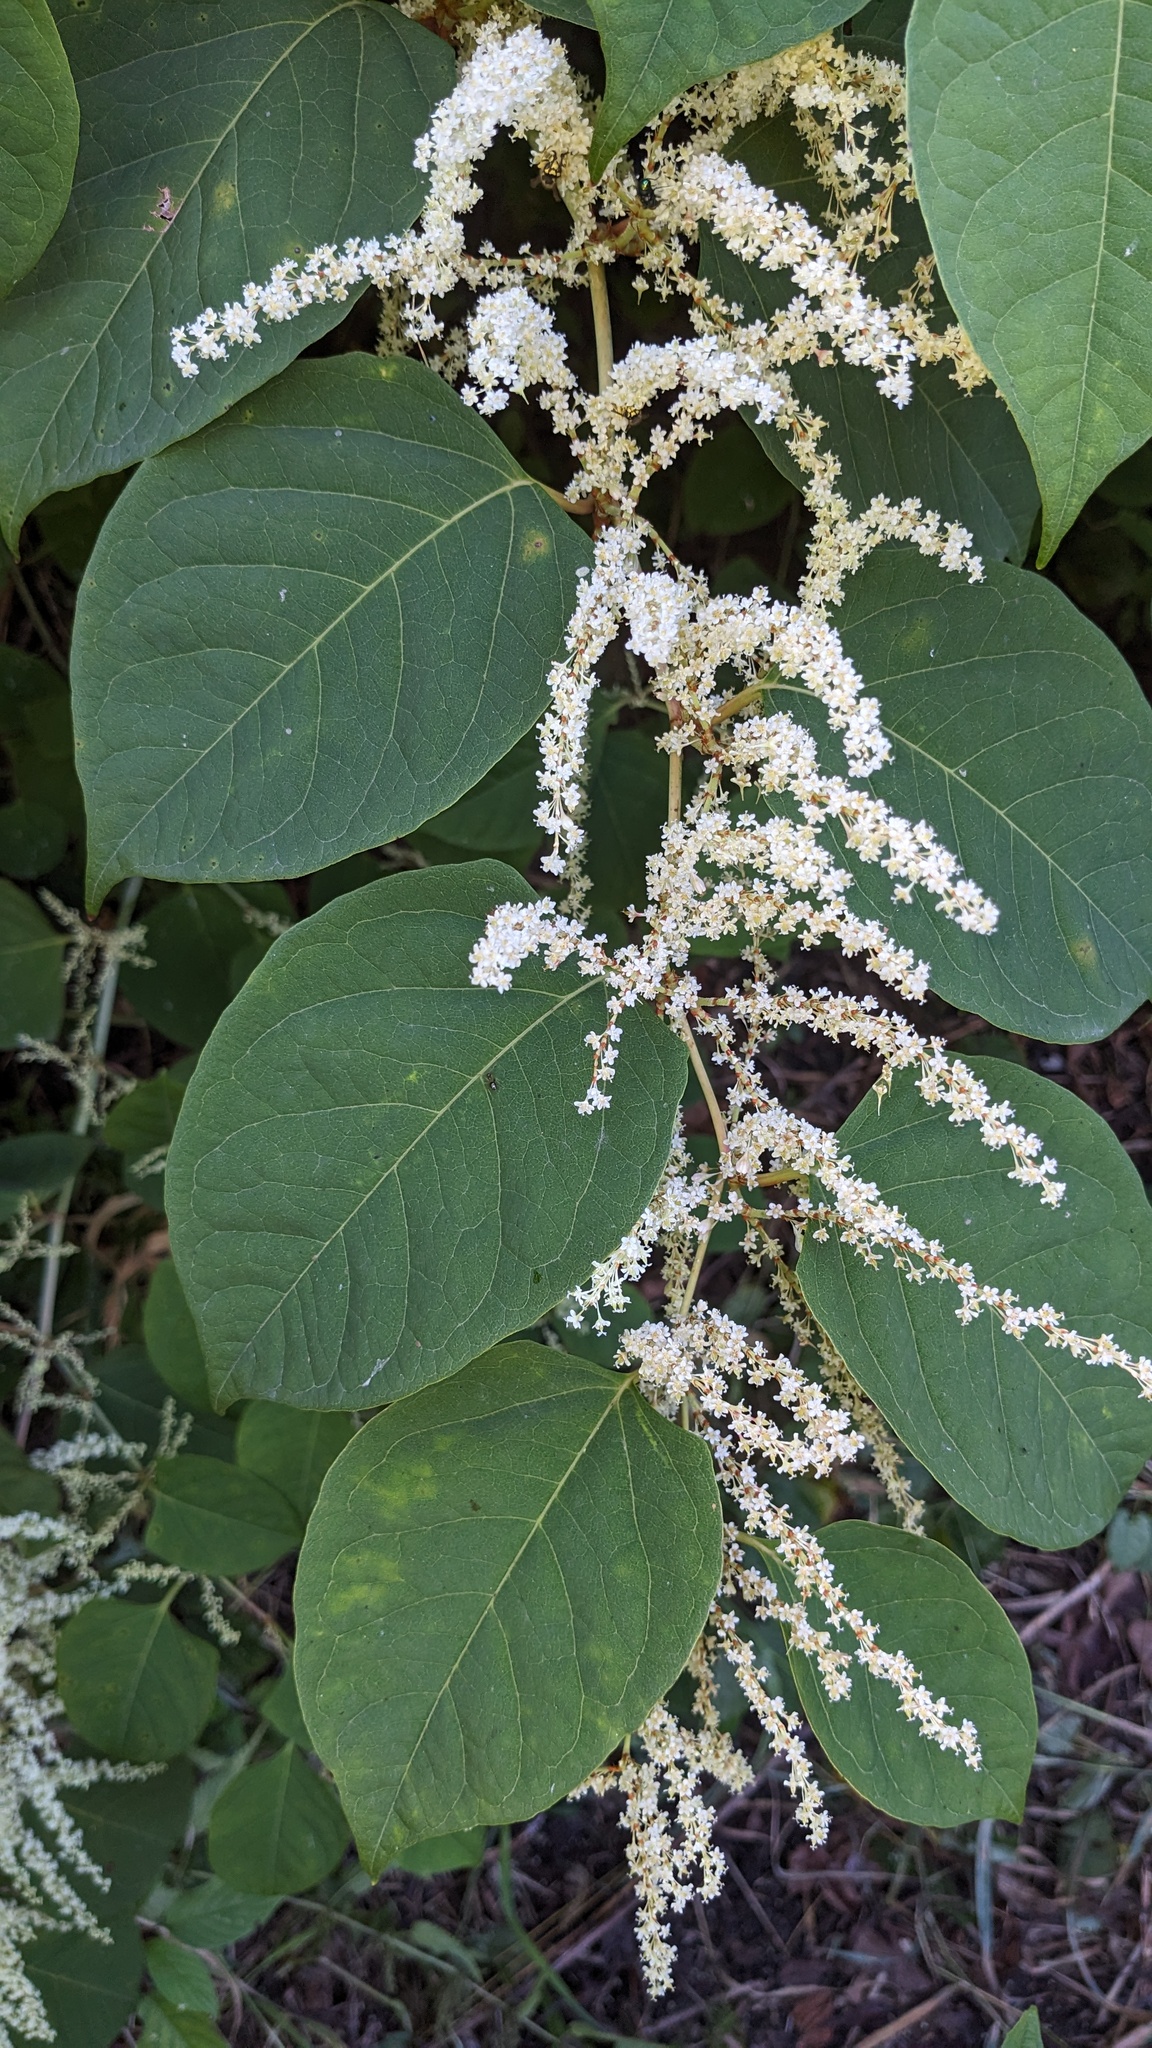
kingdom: Plantae
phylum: Tracheophyta
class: Magnoliopsida
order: Caryophyllales
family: Polygonaceae
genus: Reynoutria
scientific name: Reynoutria japonica
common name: Japanese knotweed
